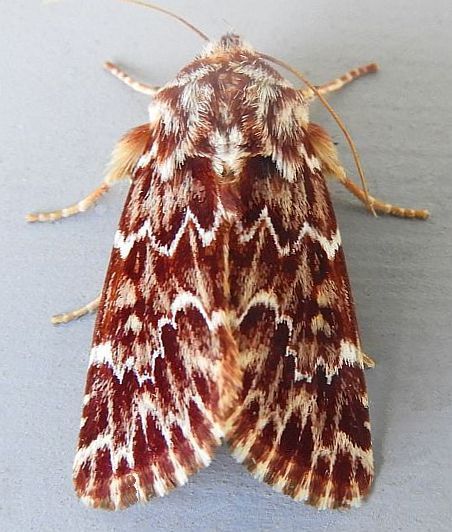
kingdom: Animalia
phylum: Arthropoda
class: Insecta
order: Lepidoptera
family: Noctuidae
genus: Schinia
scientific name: Schinia lucens
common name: Leadplant flower moth
